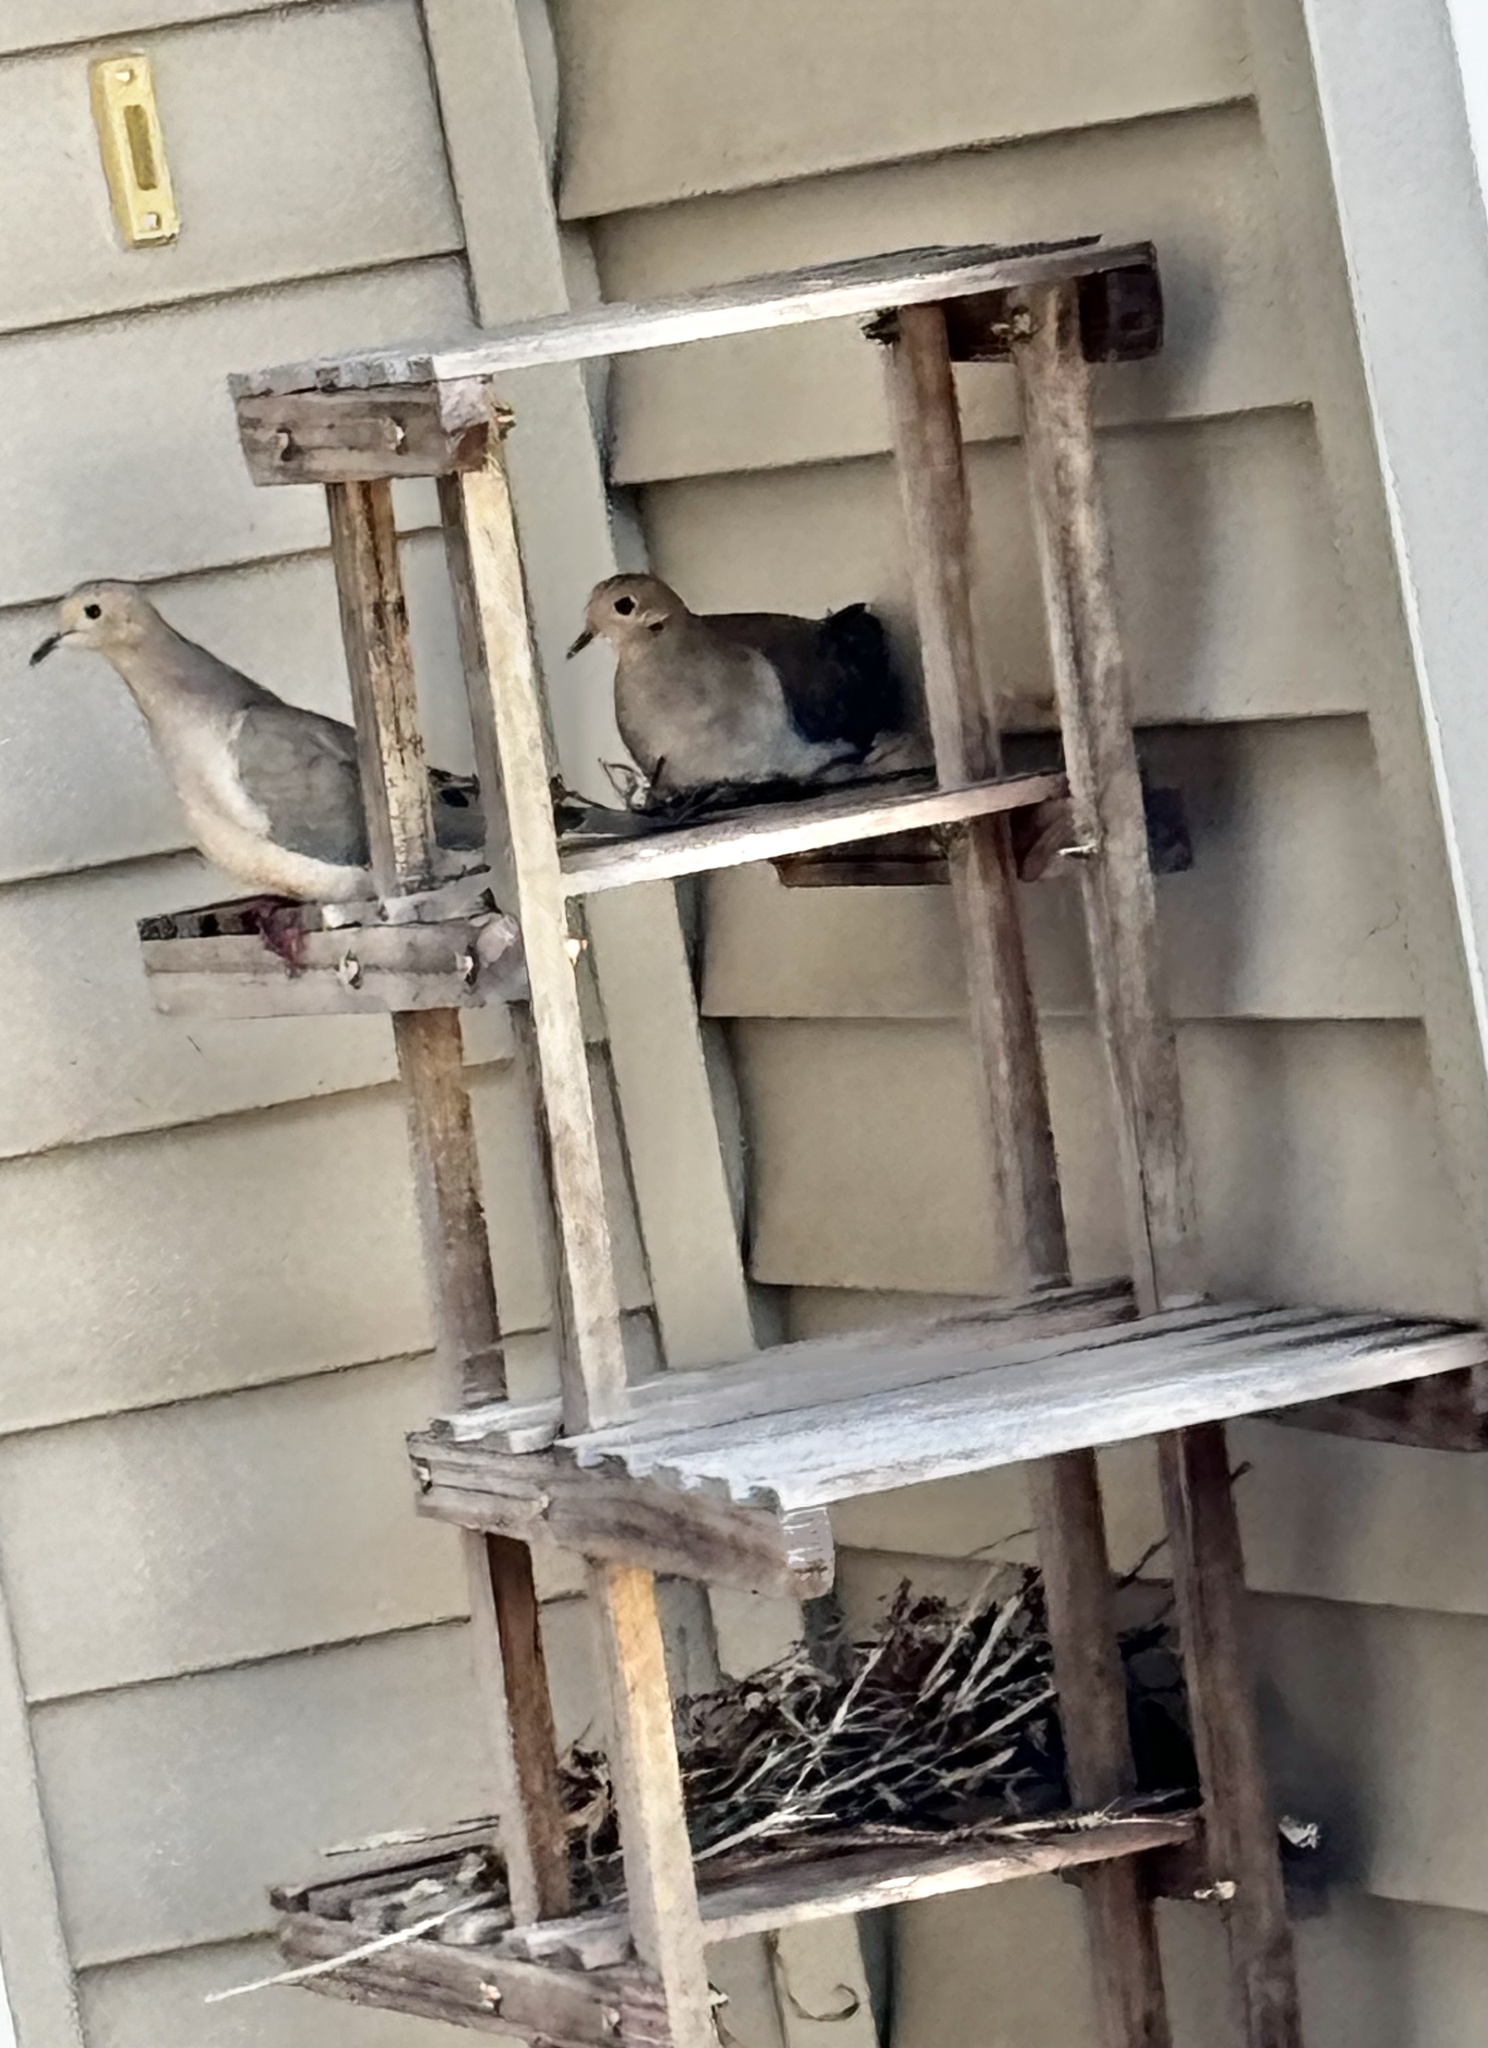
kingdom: Animalia
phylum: Chordata
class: Aves
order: Columbiformes
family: Columbidae
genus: Zenaida
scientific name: Zenaida macroura
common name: Mourning dove
